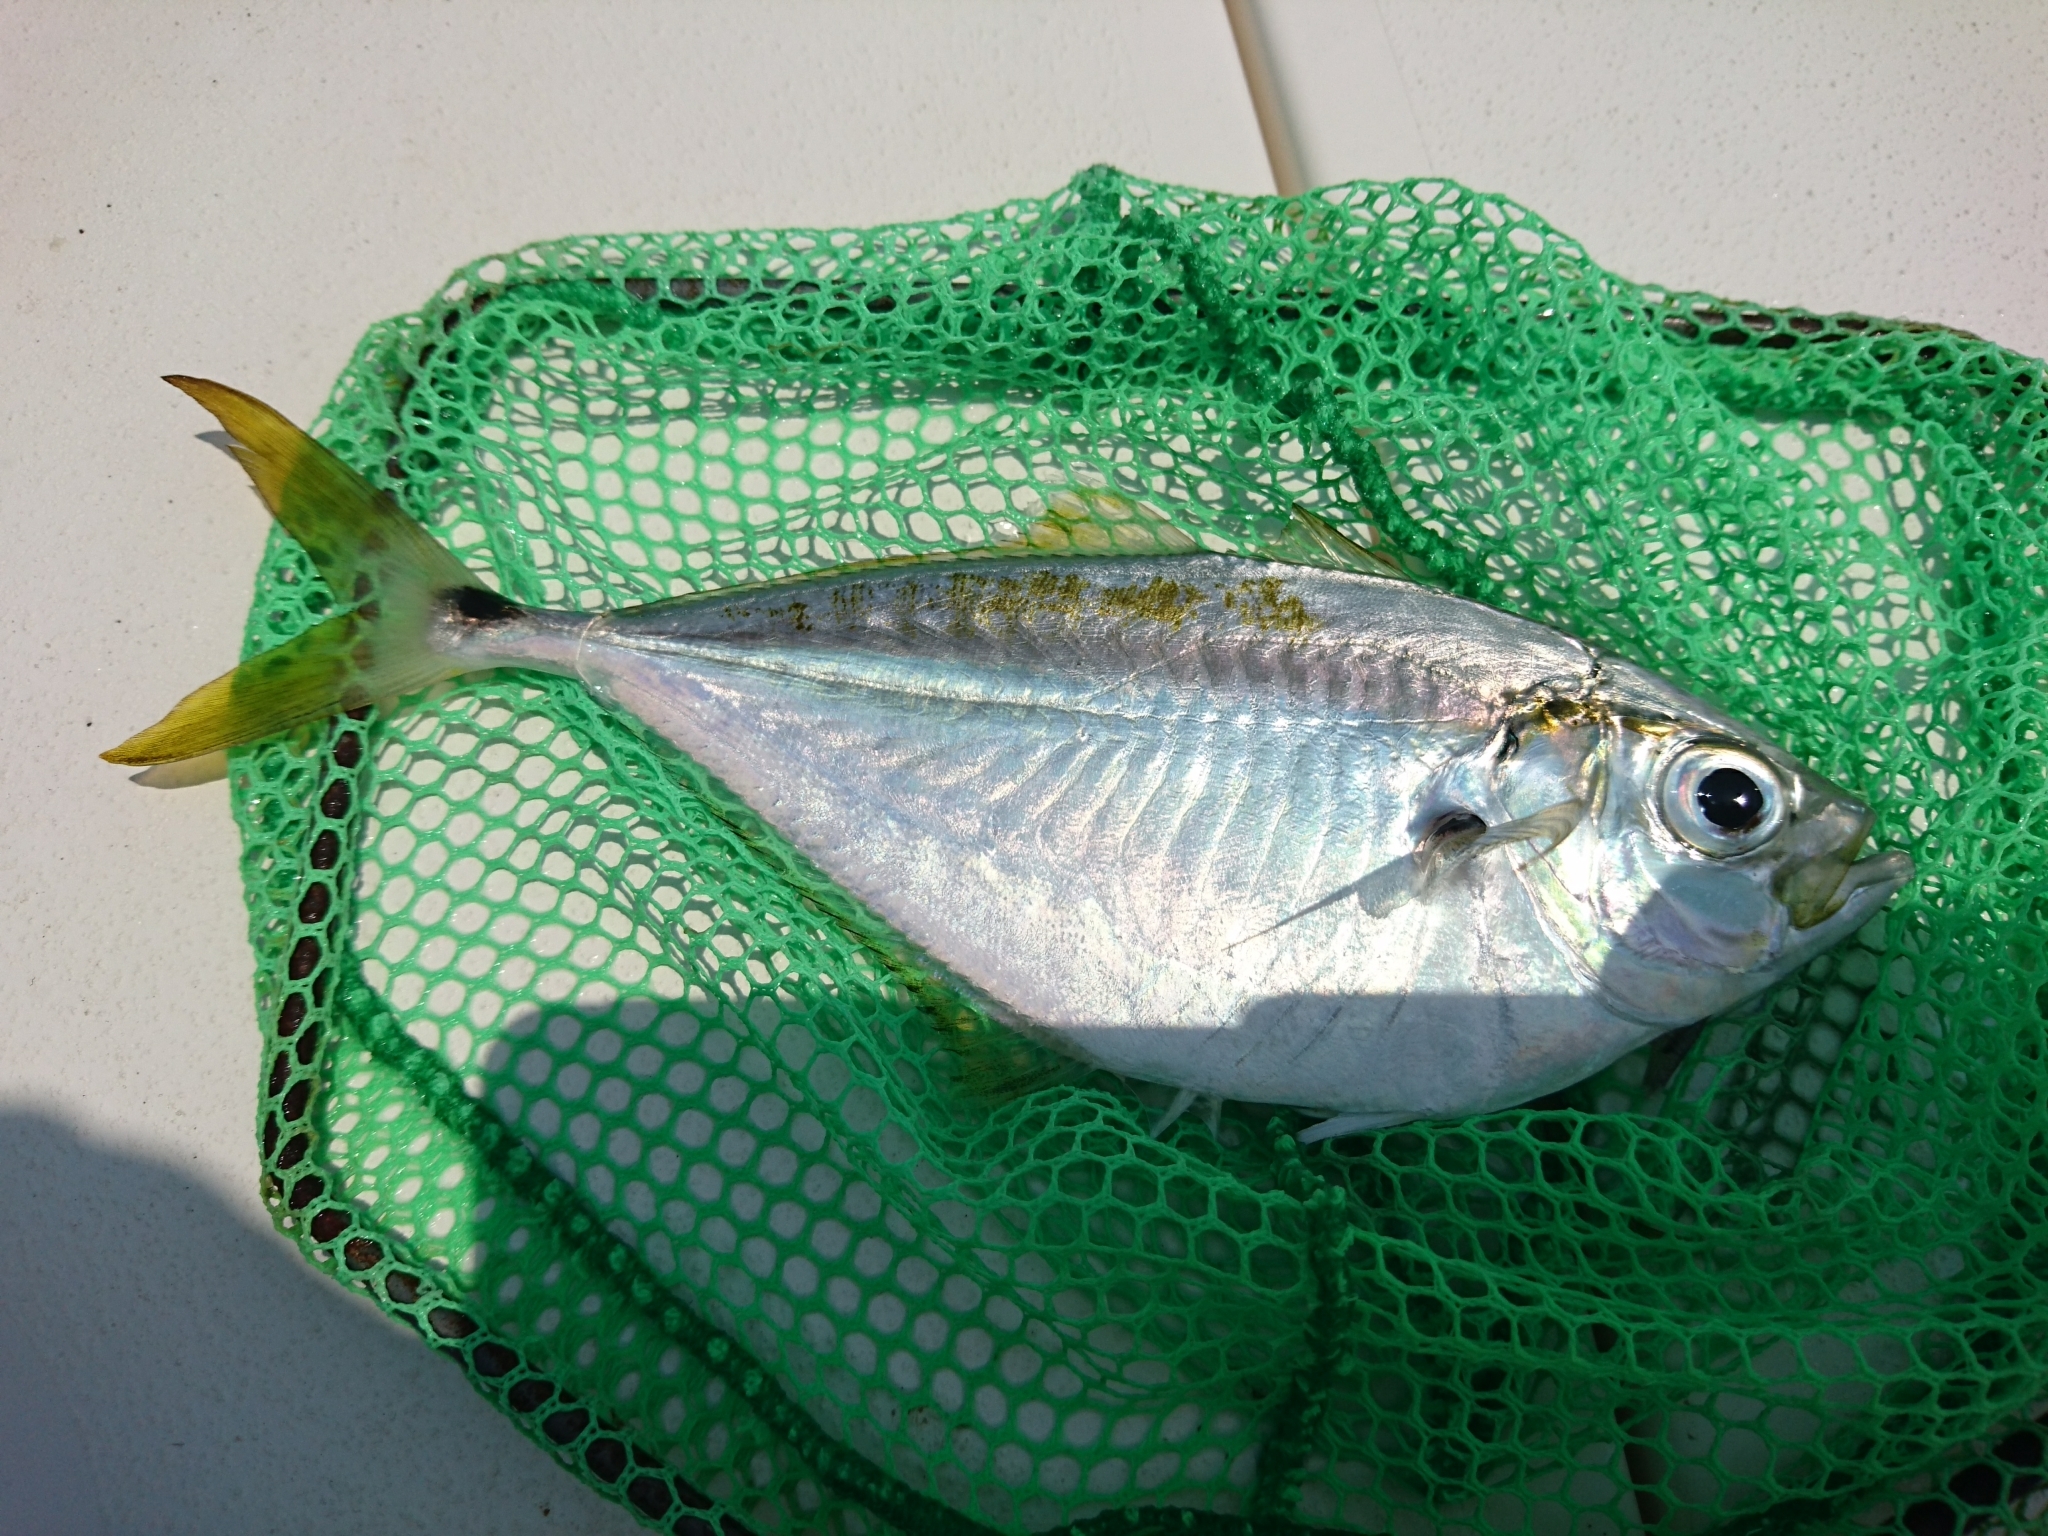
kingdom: Animalia
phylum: Chordata
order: Perciformes
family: Carangidae
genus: Chloroscombrus
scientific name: Chloroscombrus chrysurus
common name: Bumper
